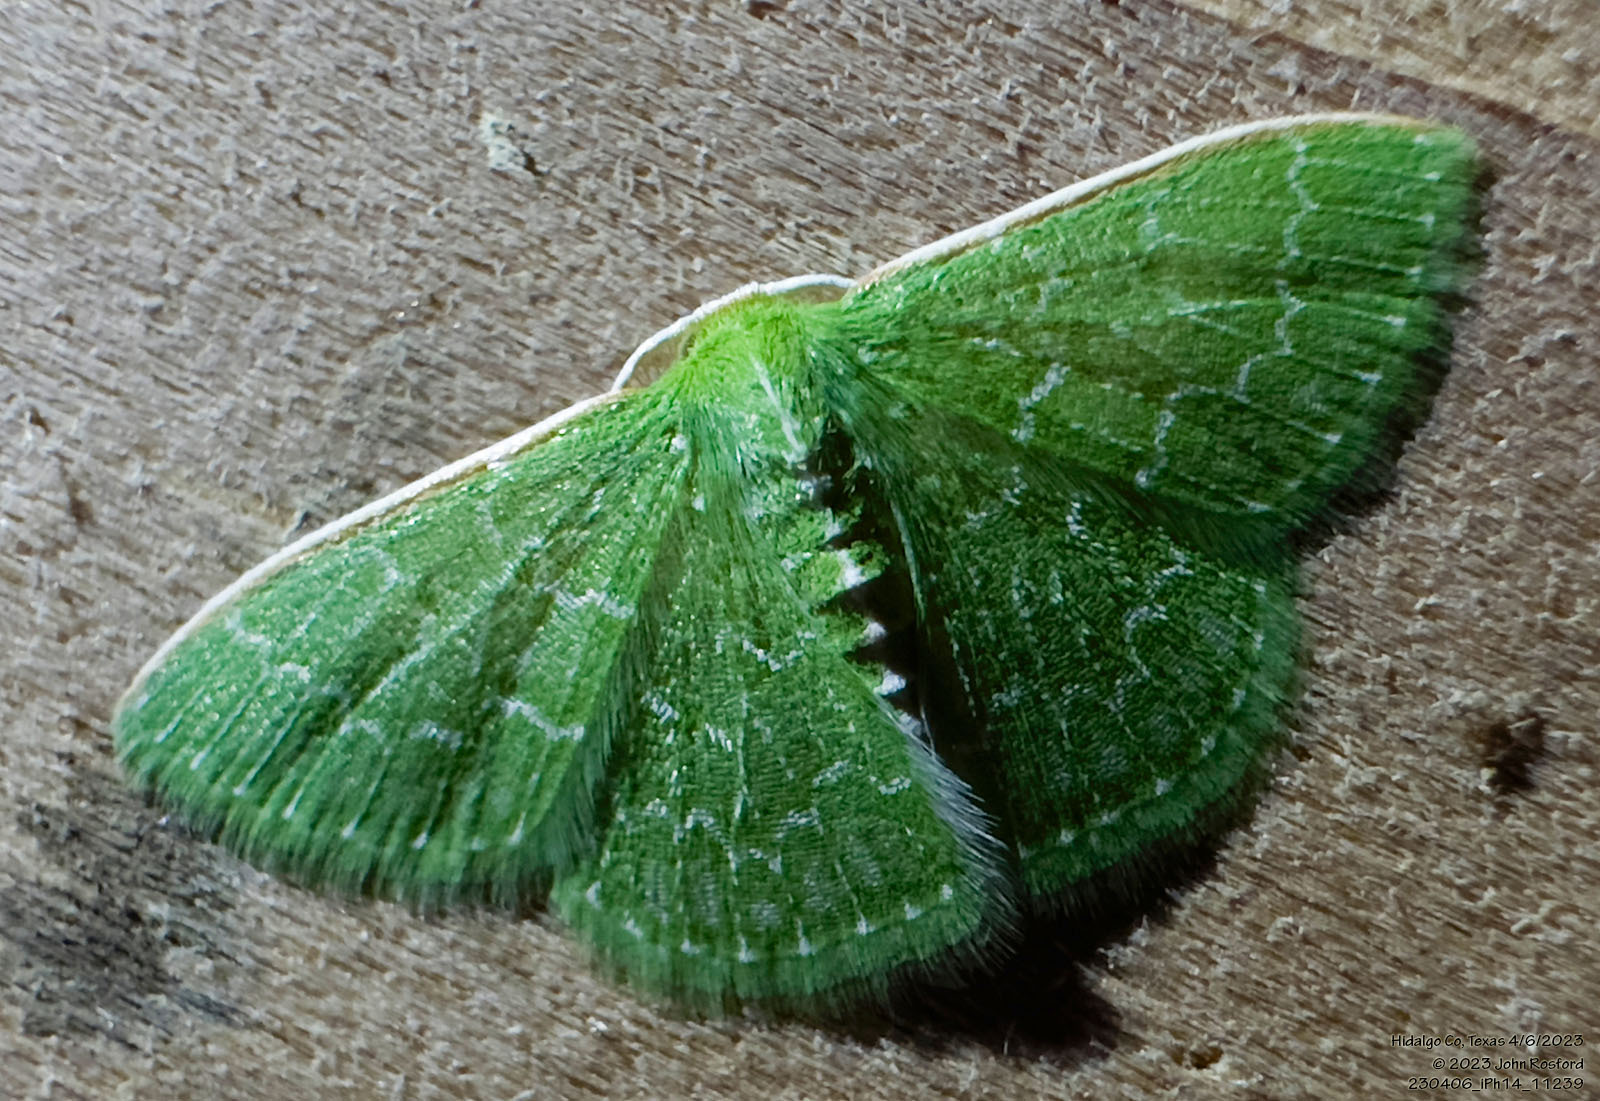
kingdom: Animalia
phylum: Arthropoda
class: Insecta
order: Lepidoptera
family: Geometridae
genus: Synchlora
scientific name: Synchlora frondaria
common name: Southern emerald
